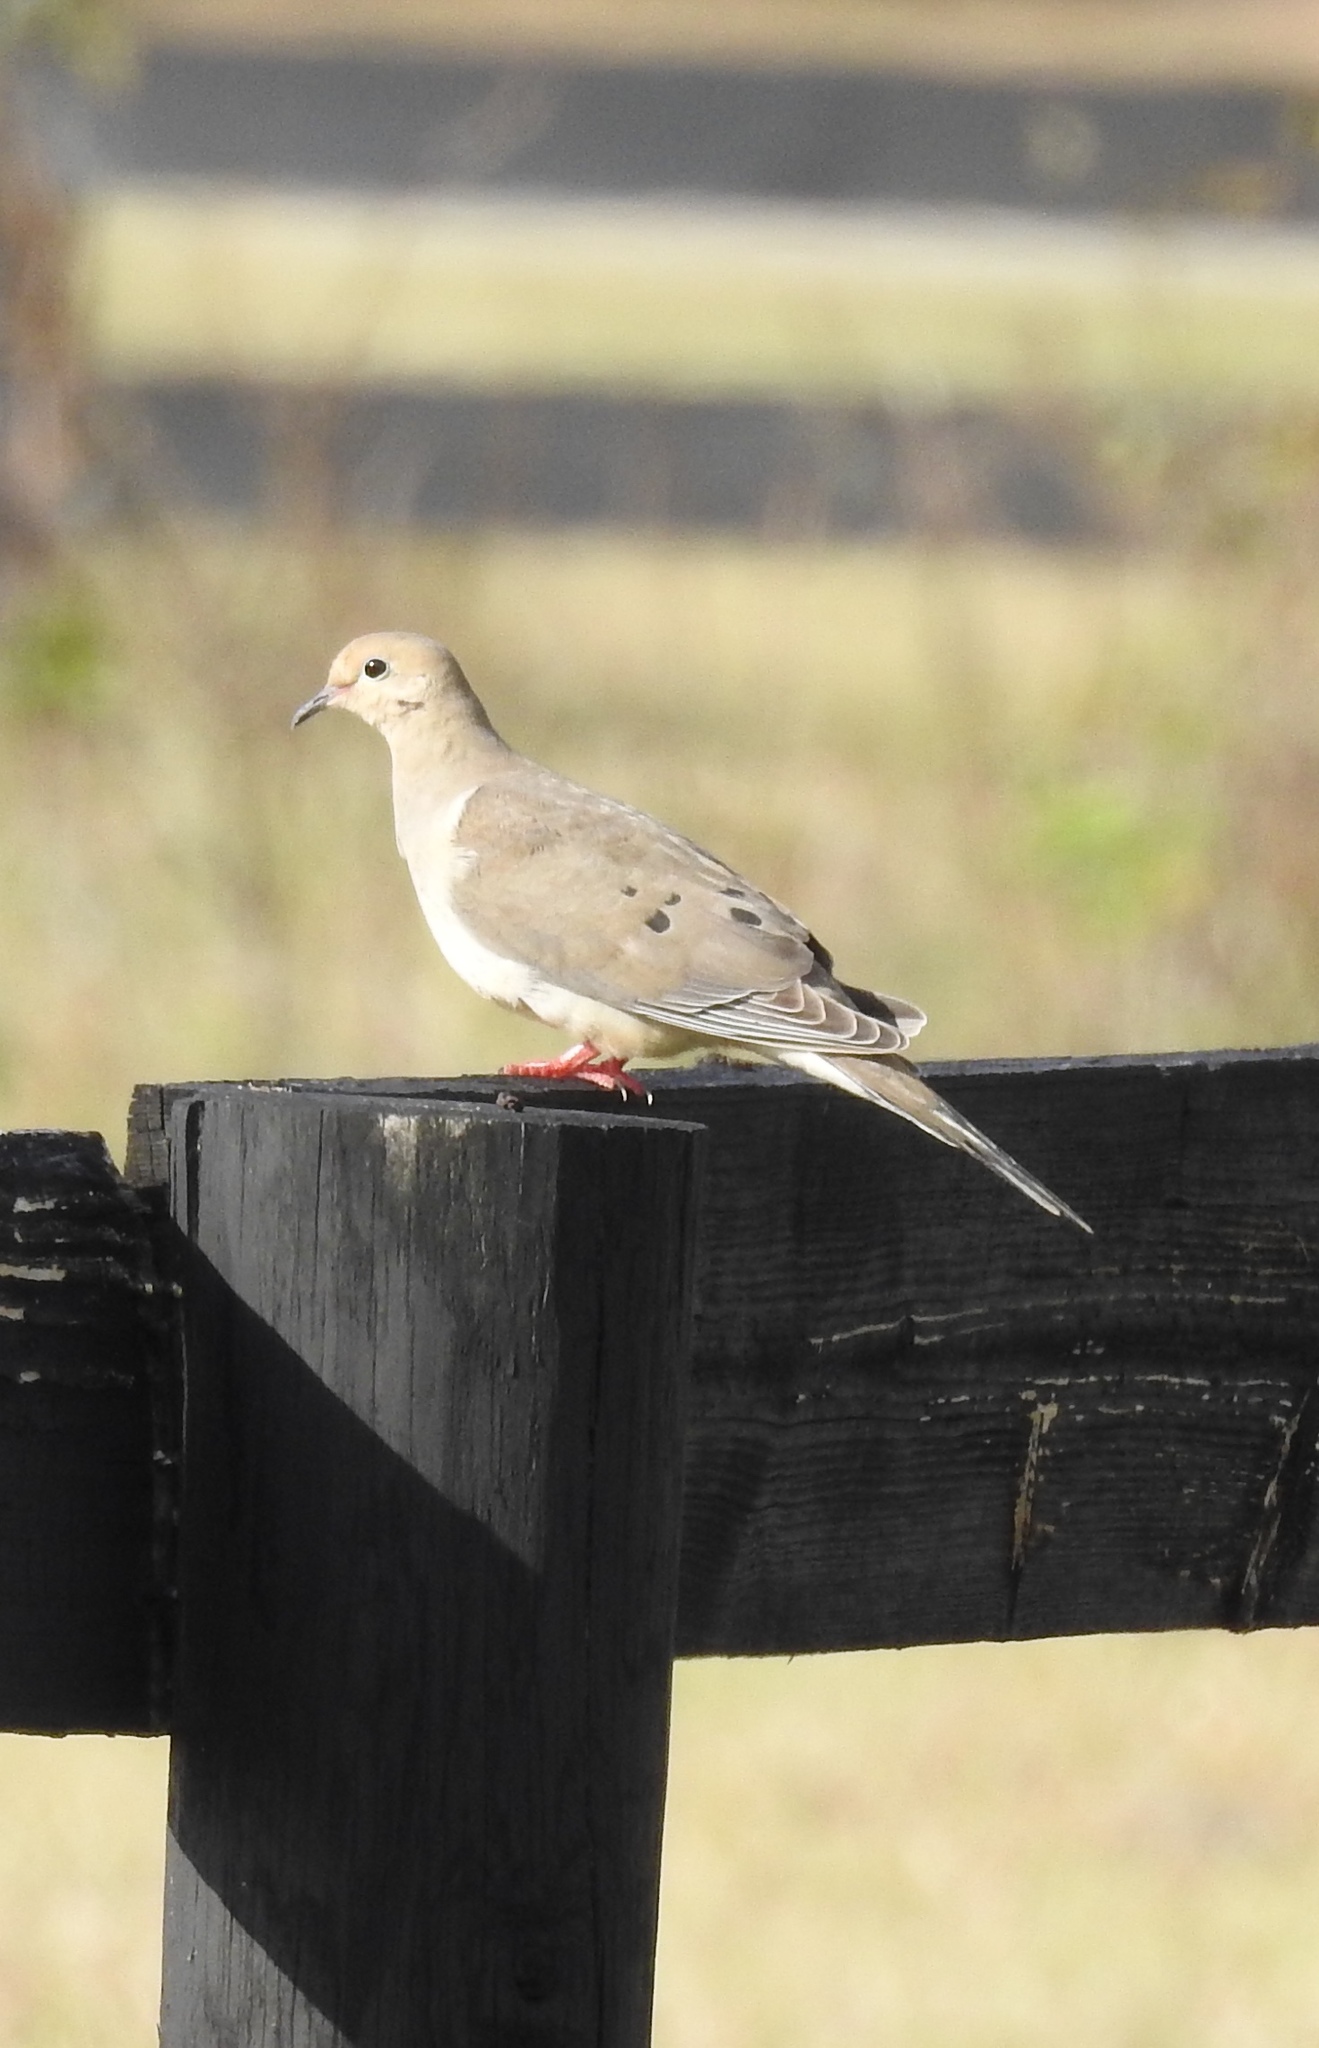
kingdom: Animalia
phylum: Chordata
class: Aves
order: Columbiformes
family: Columbidae
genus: Zenaida
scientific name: Zenaida macroura
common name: Mourning dove
